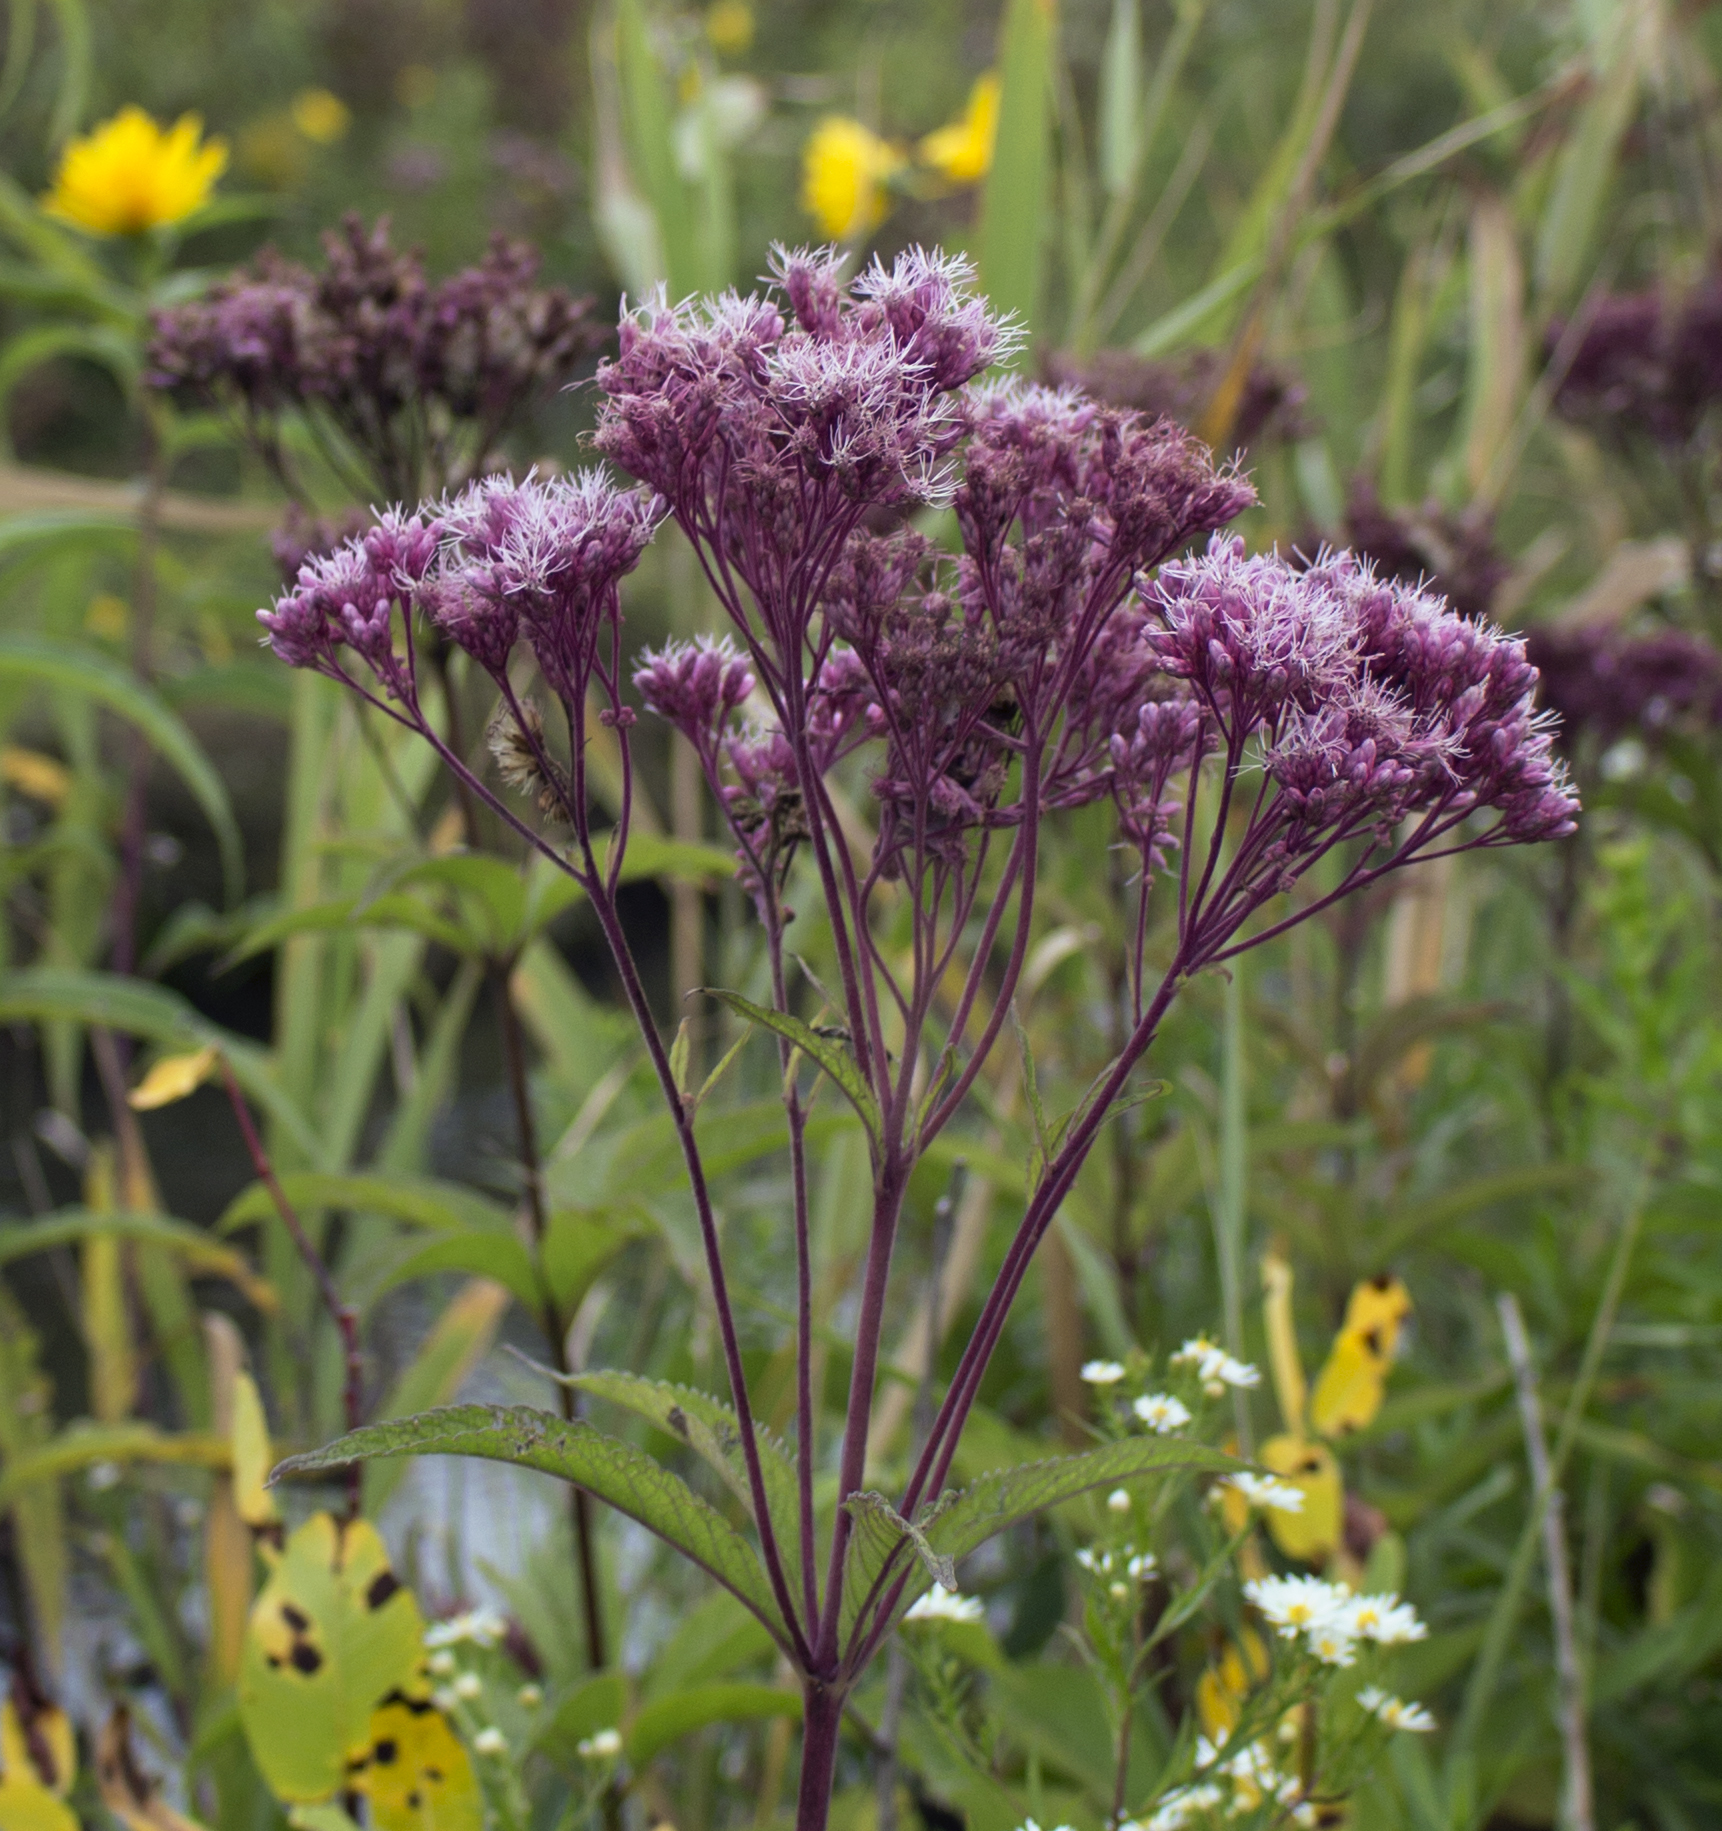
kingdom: Plantae
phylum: Tracheophyta
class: Magnoliopsida
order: Asterales
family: Asteraceae
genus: Eutrochium
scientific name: Eutrochium maculatum
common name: Spotted joe pye weed
